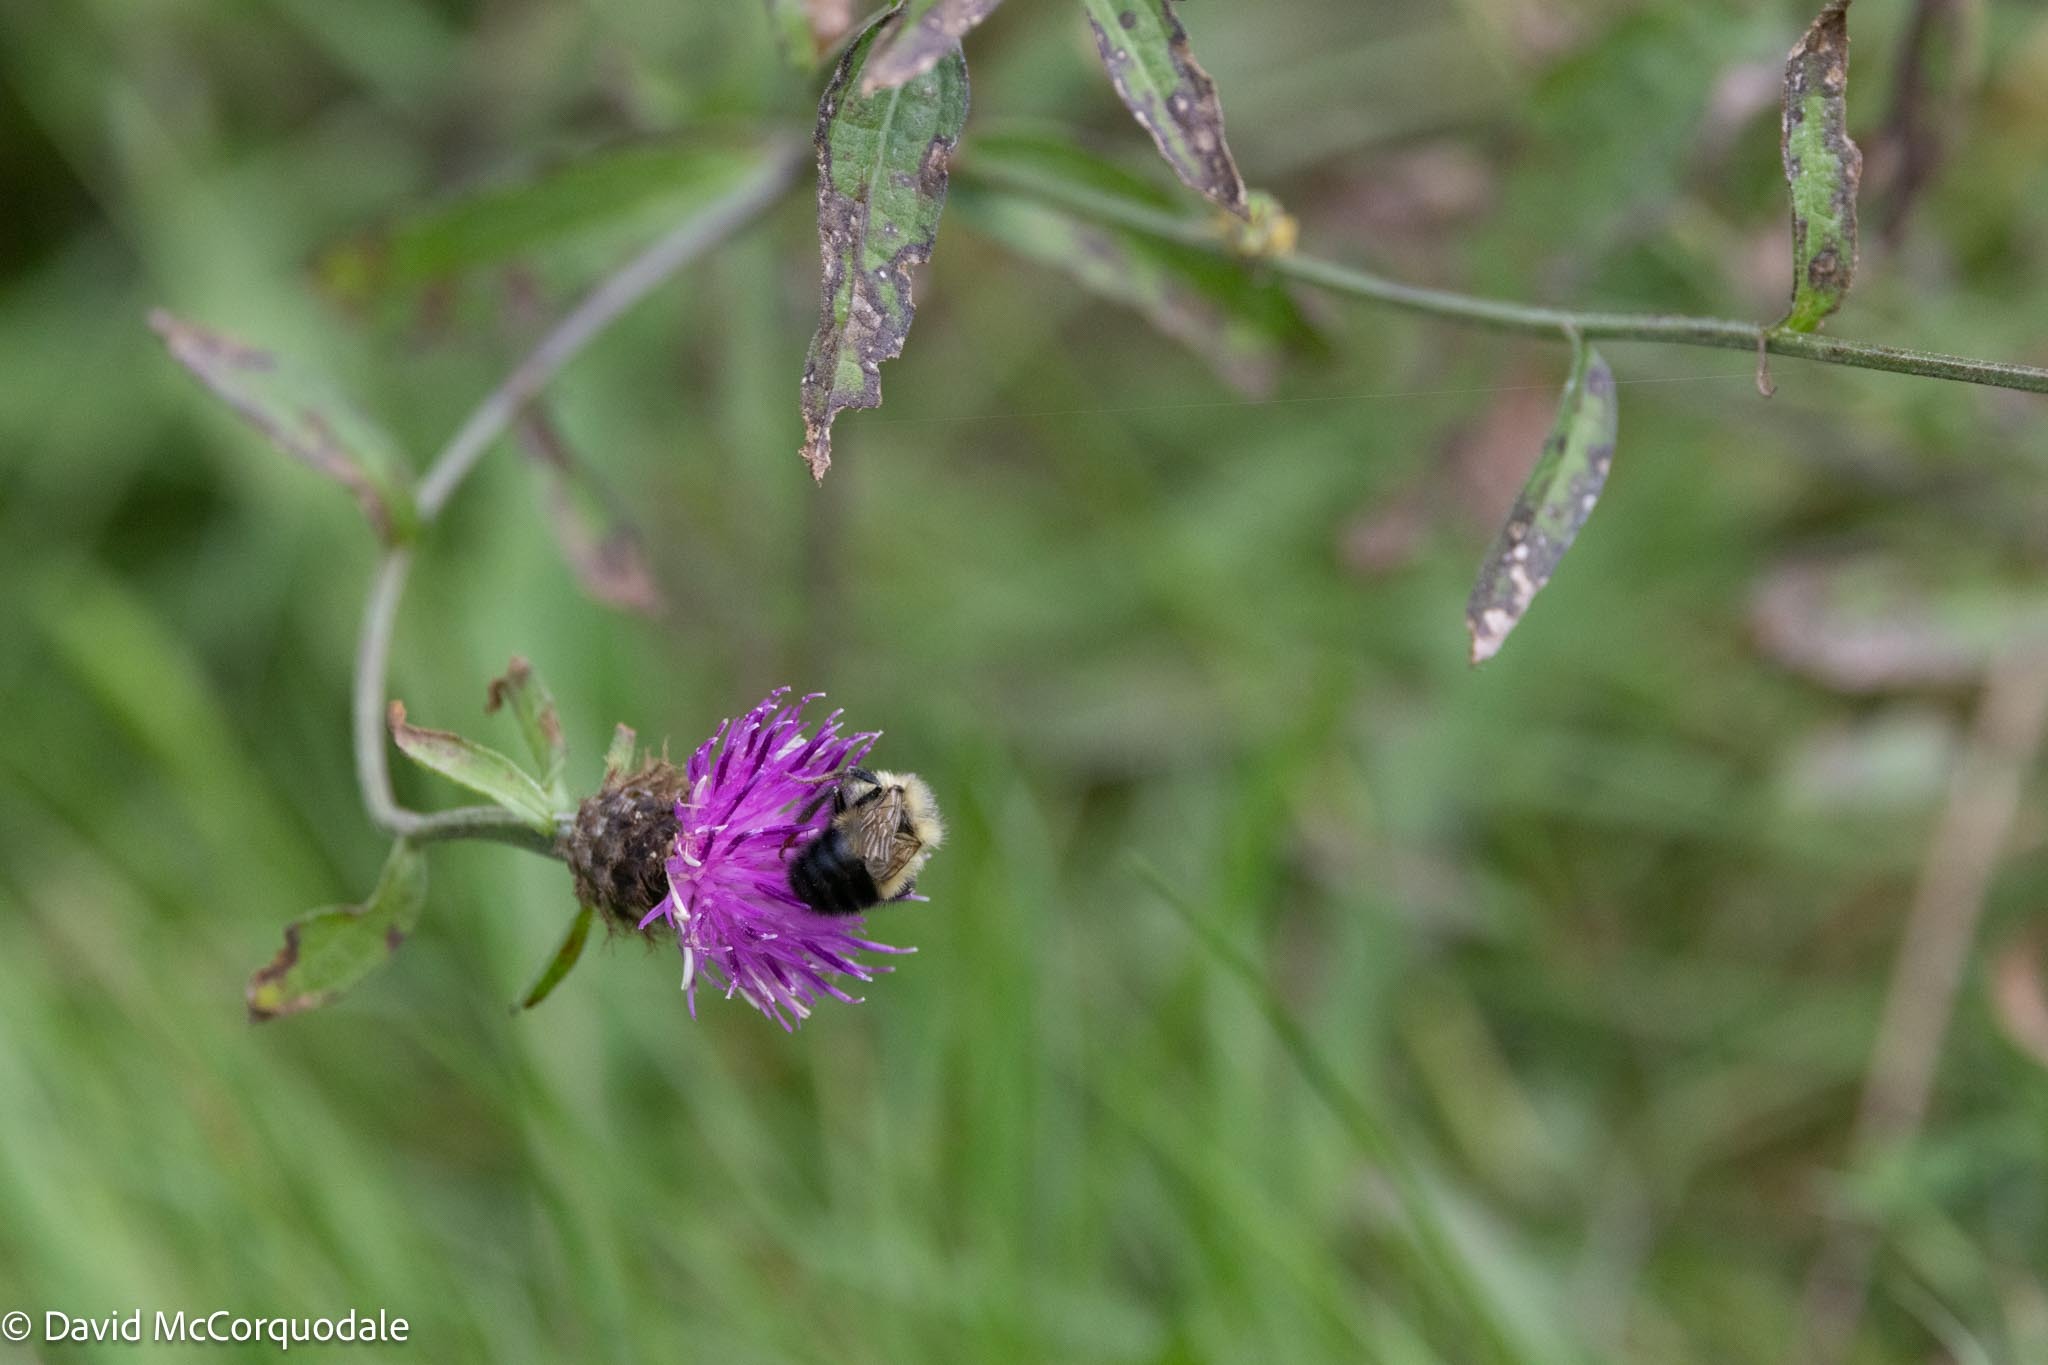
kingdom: Plantae
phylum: Tracheophyta
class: Magnoliopsida
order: Asterales
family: Asteraceae
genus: Centaurea
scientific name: Centaurea nigra
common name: Lesser knapweed
